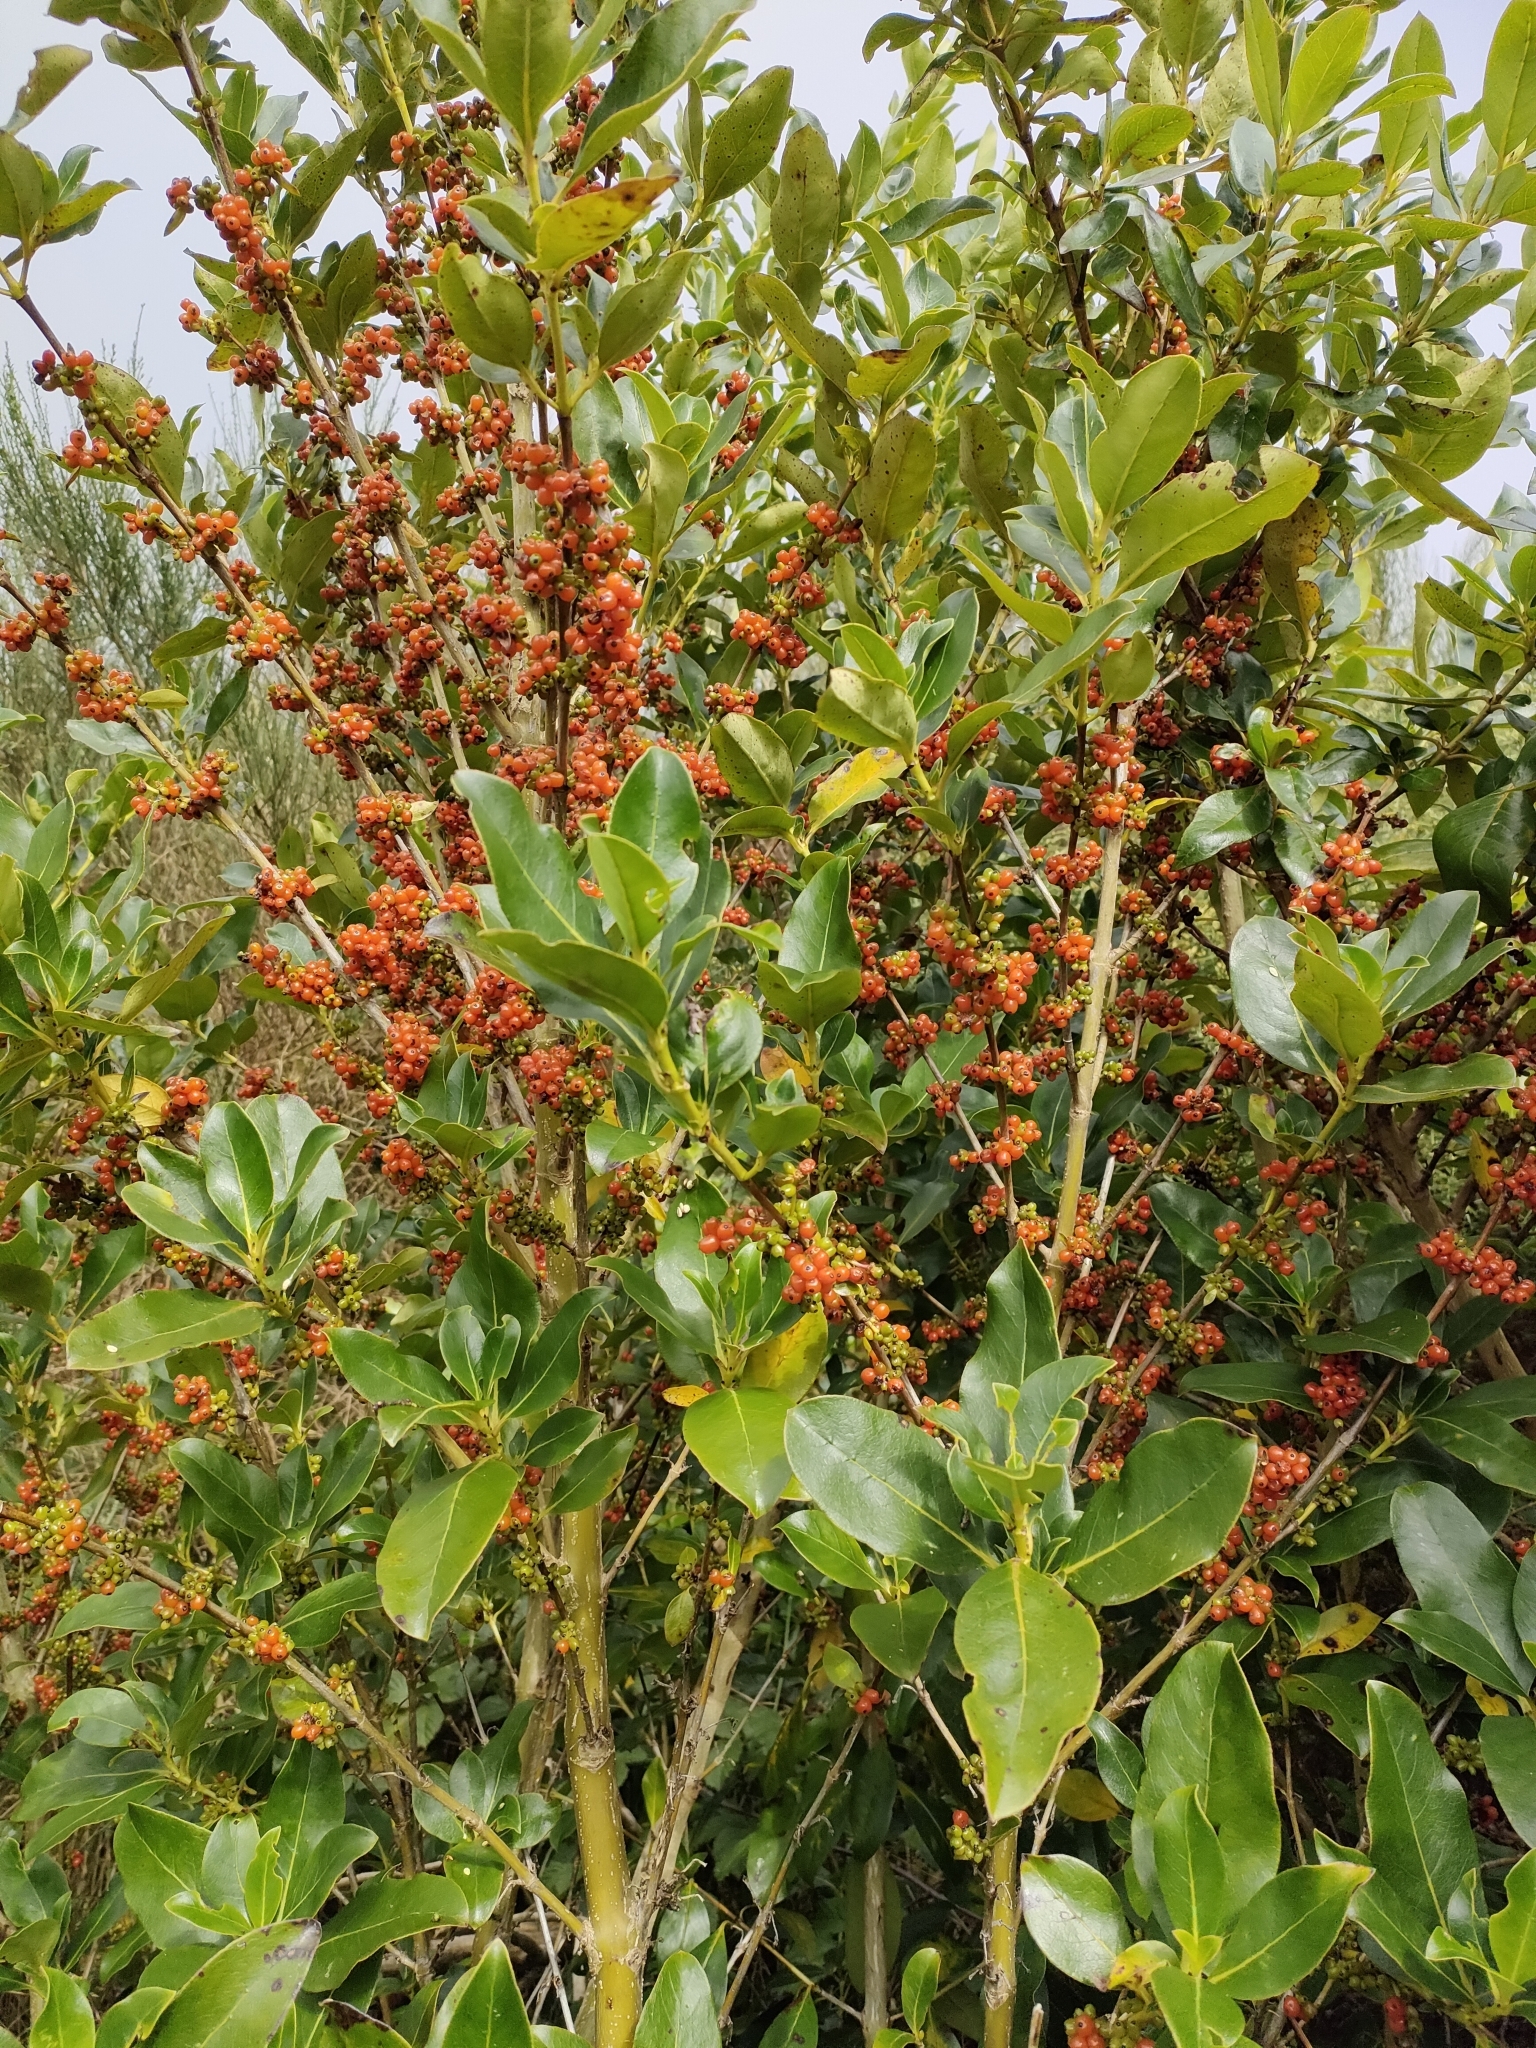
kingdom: Plantae
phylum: Tracheophyta
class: Magnoliopsida
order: Gentianales
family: Rubiaceae
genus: Coprosma
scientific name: Coprosma robusta
